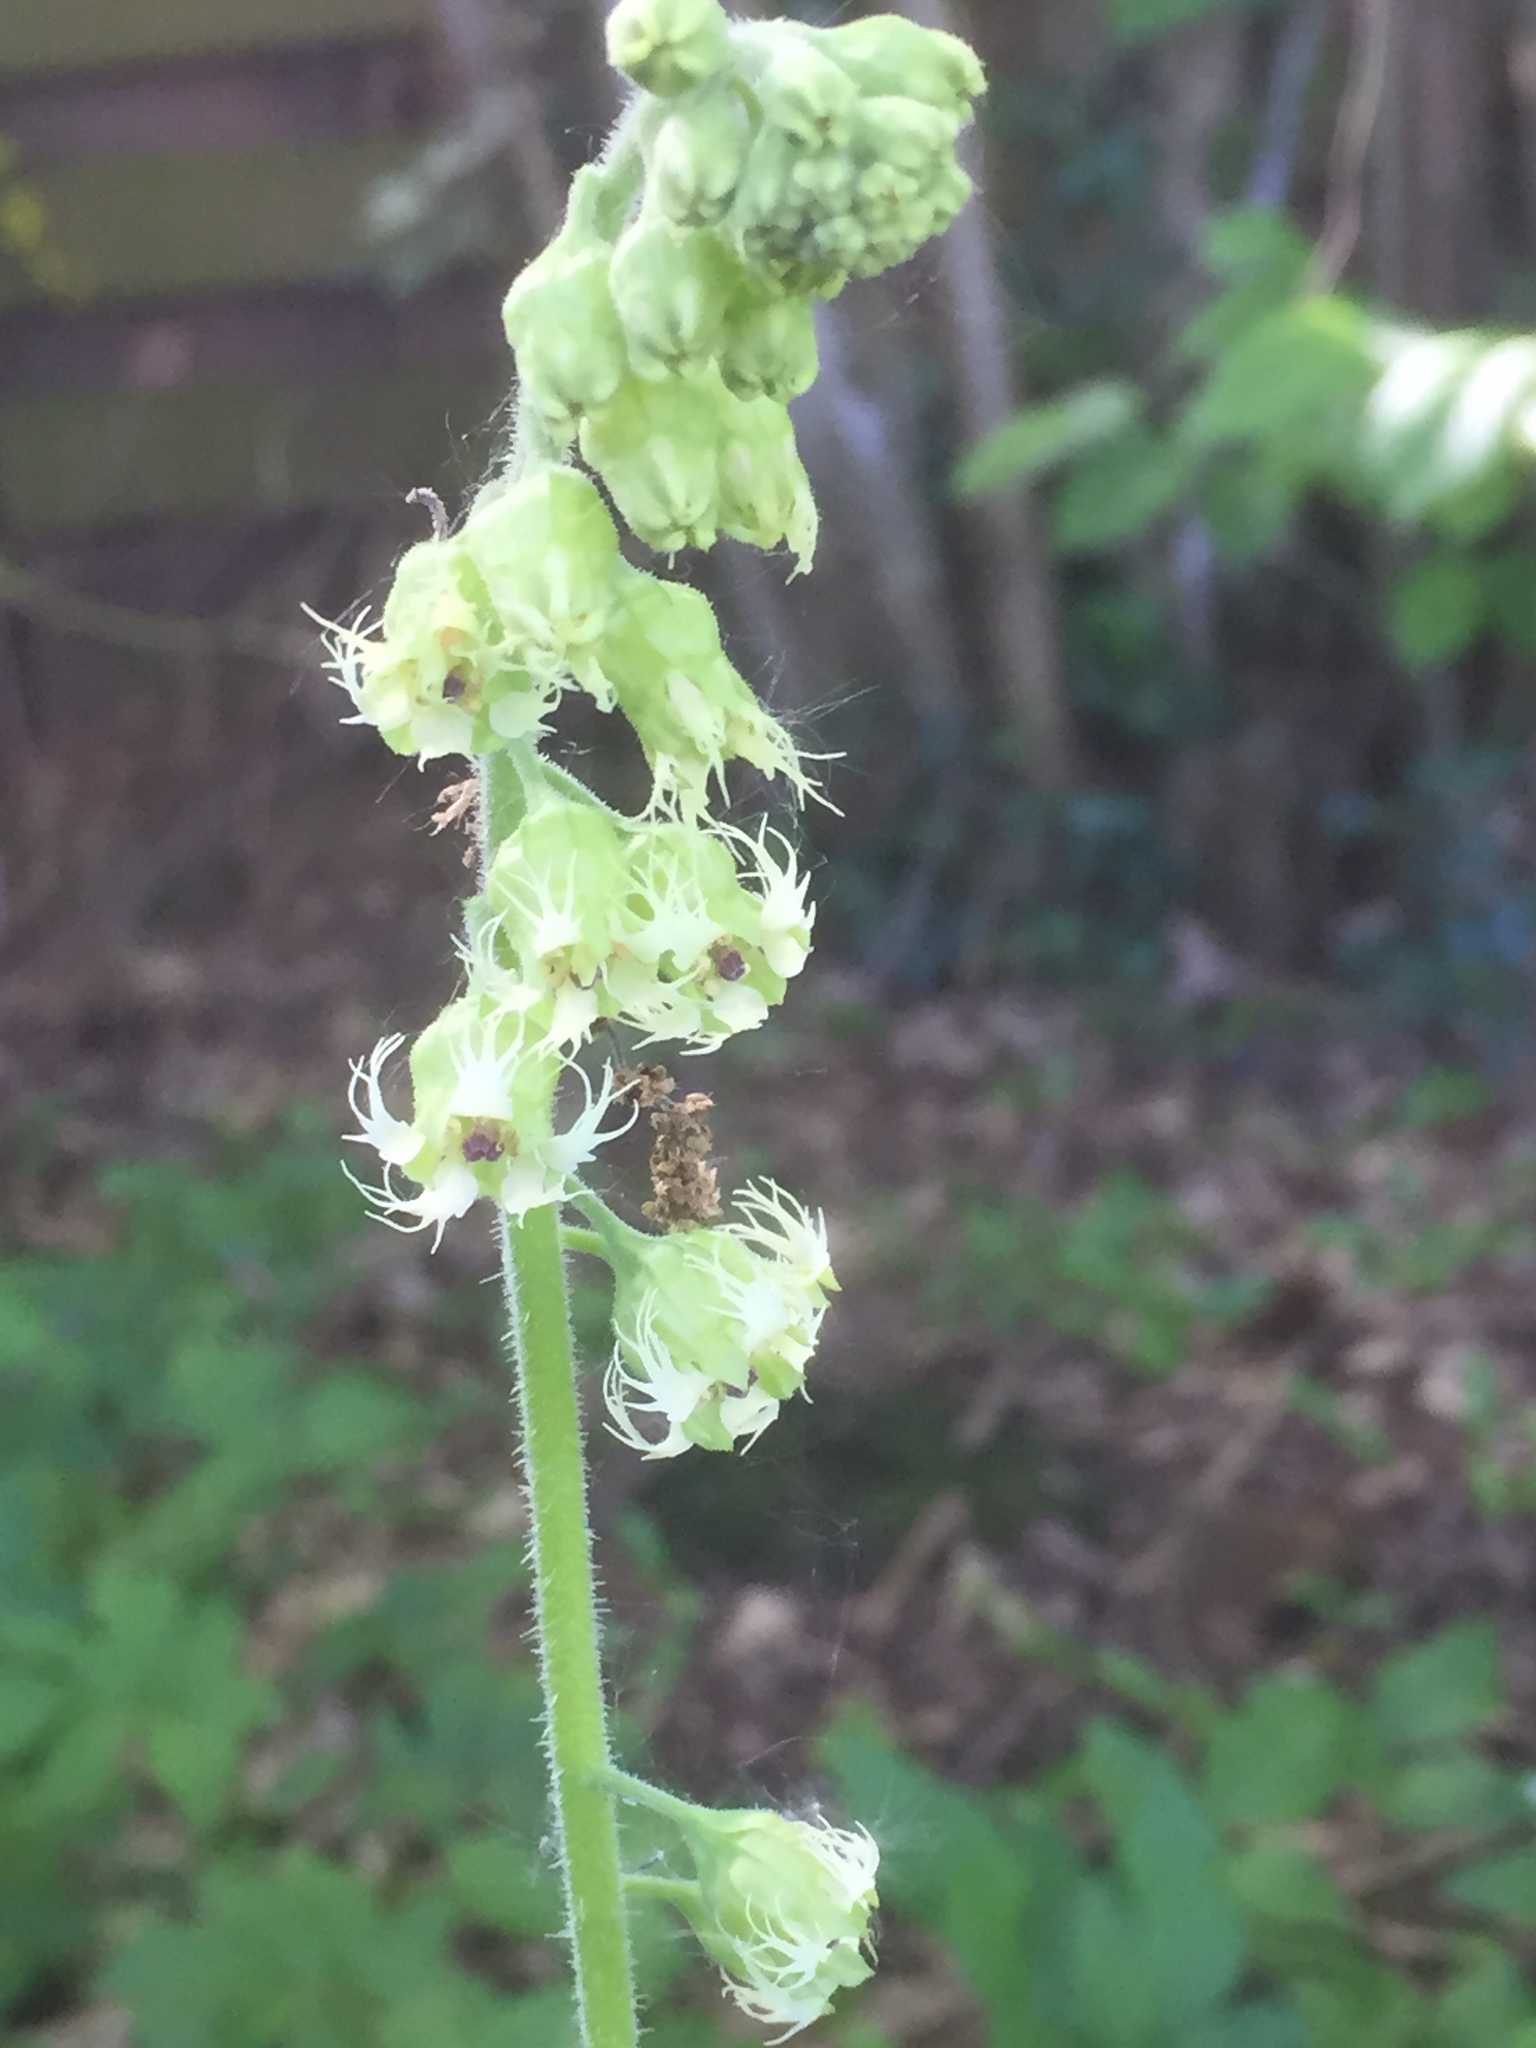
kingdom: Plantae
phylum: Tracheophyta
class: Magnoliopsida
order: Saxifragales
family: Saxifragaceae
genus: Tellima
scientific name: Tellima grandiflora
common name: Fringecups
